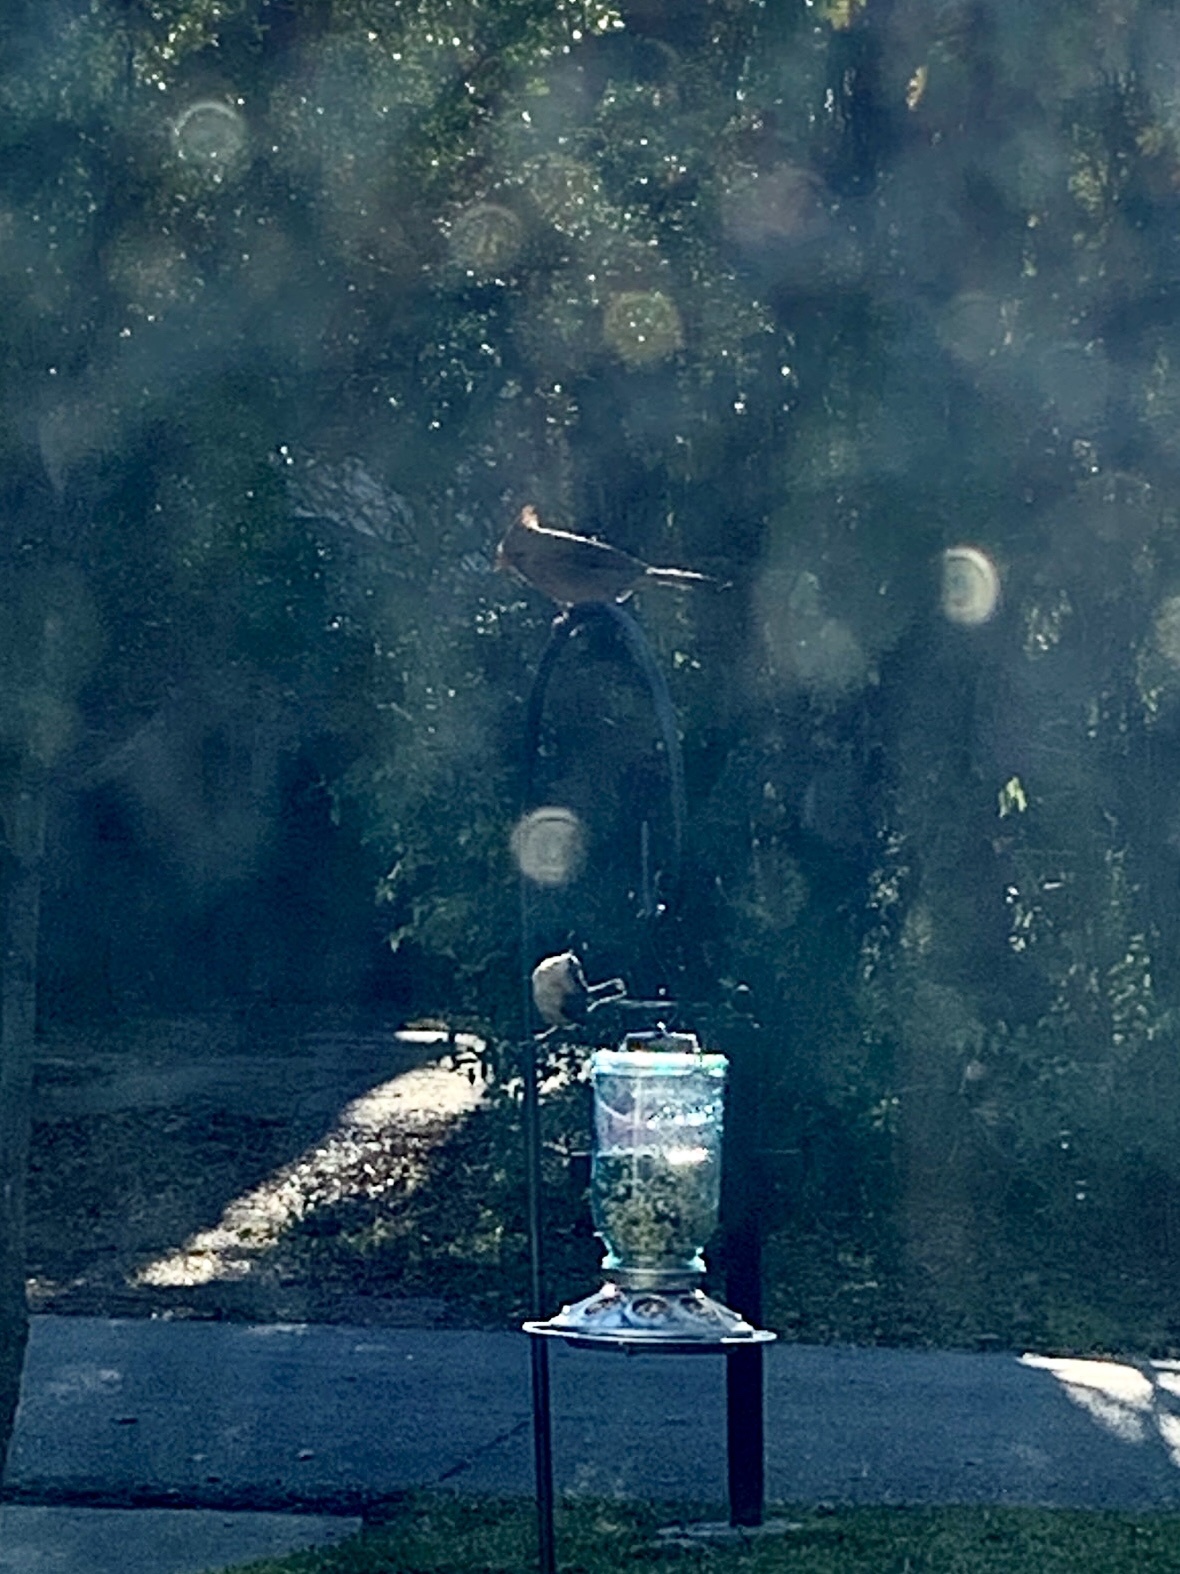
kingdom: Animalia
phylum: Chordata
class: Aves
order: Passeriformes
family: Cardinalidae
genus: Cardinalis
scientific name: Cardinalis cardinalis
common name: Northern cardinal
